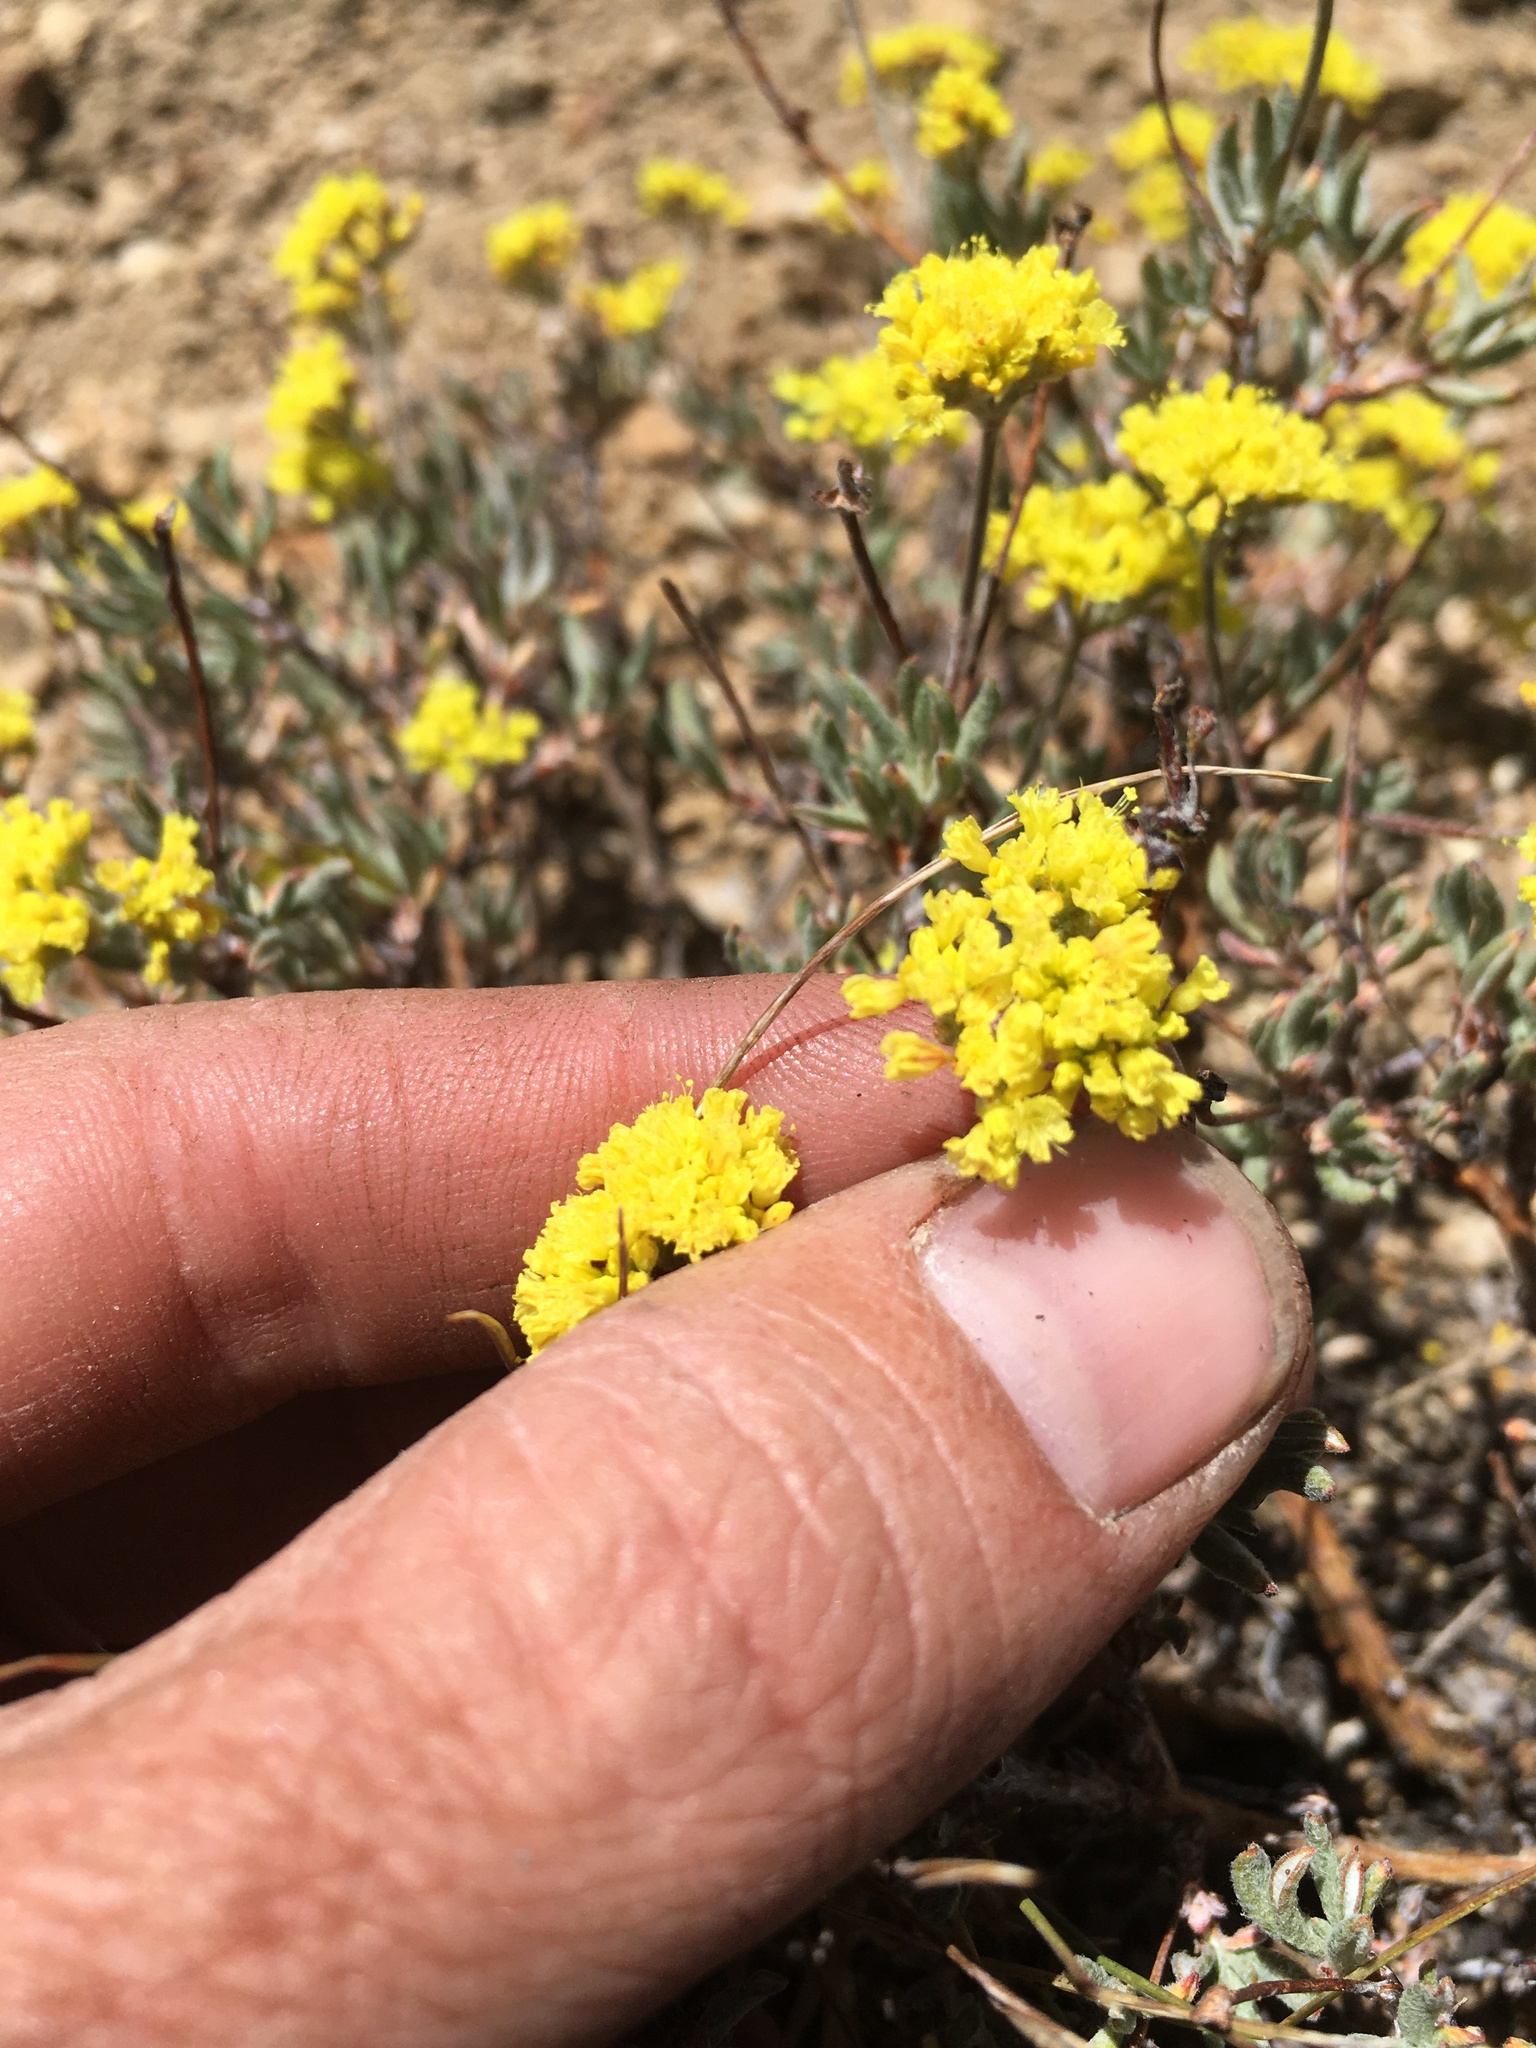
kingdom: Plantae
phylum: Tracheophyta
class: Magnoliopsida
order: Caryophyllales
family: Polygonaceae
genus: Eriogonum
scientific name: Eriogonum microtheca
